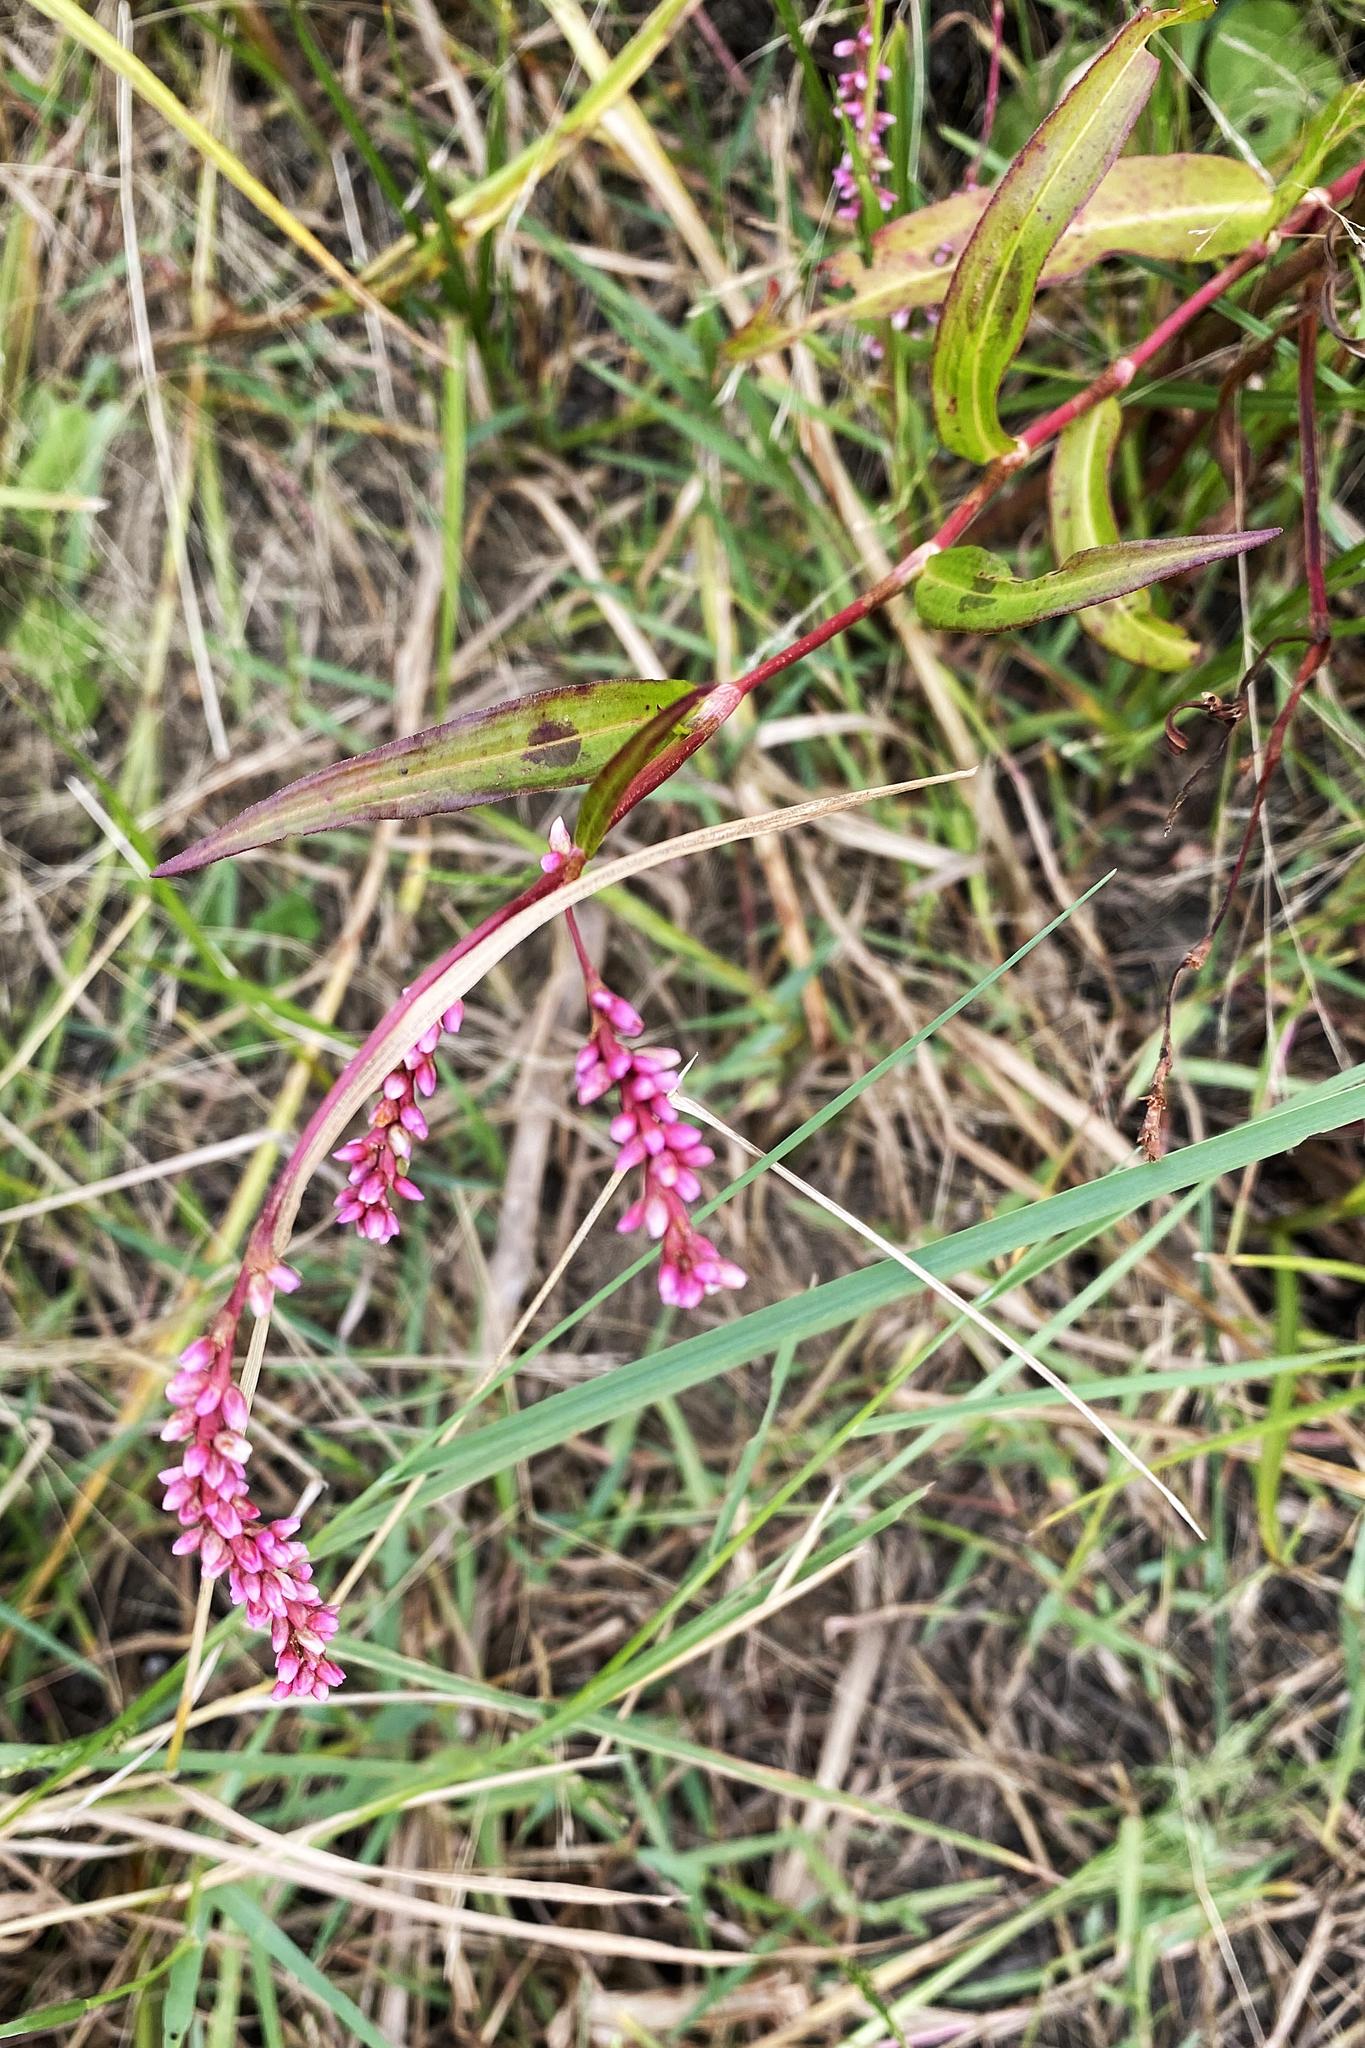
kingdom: Plantae
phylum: Tracheophyta
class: Magnoliopsida
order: Caryophyllales
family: Polygonaceae
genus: Persicaria
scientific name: Persicaria decipiens
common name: Willow-weed
